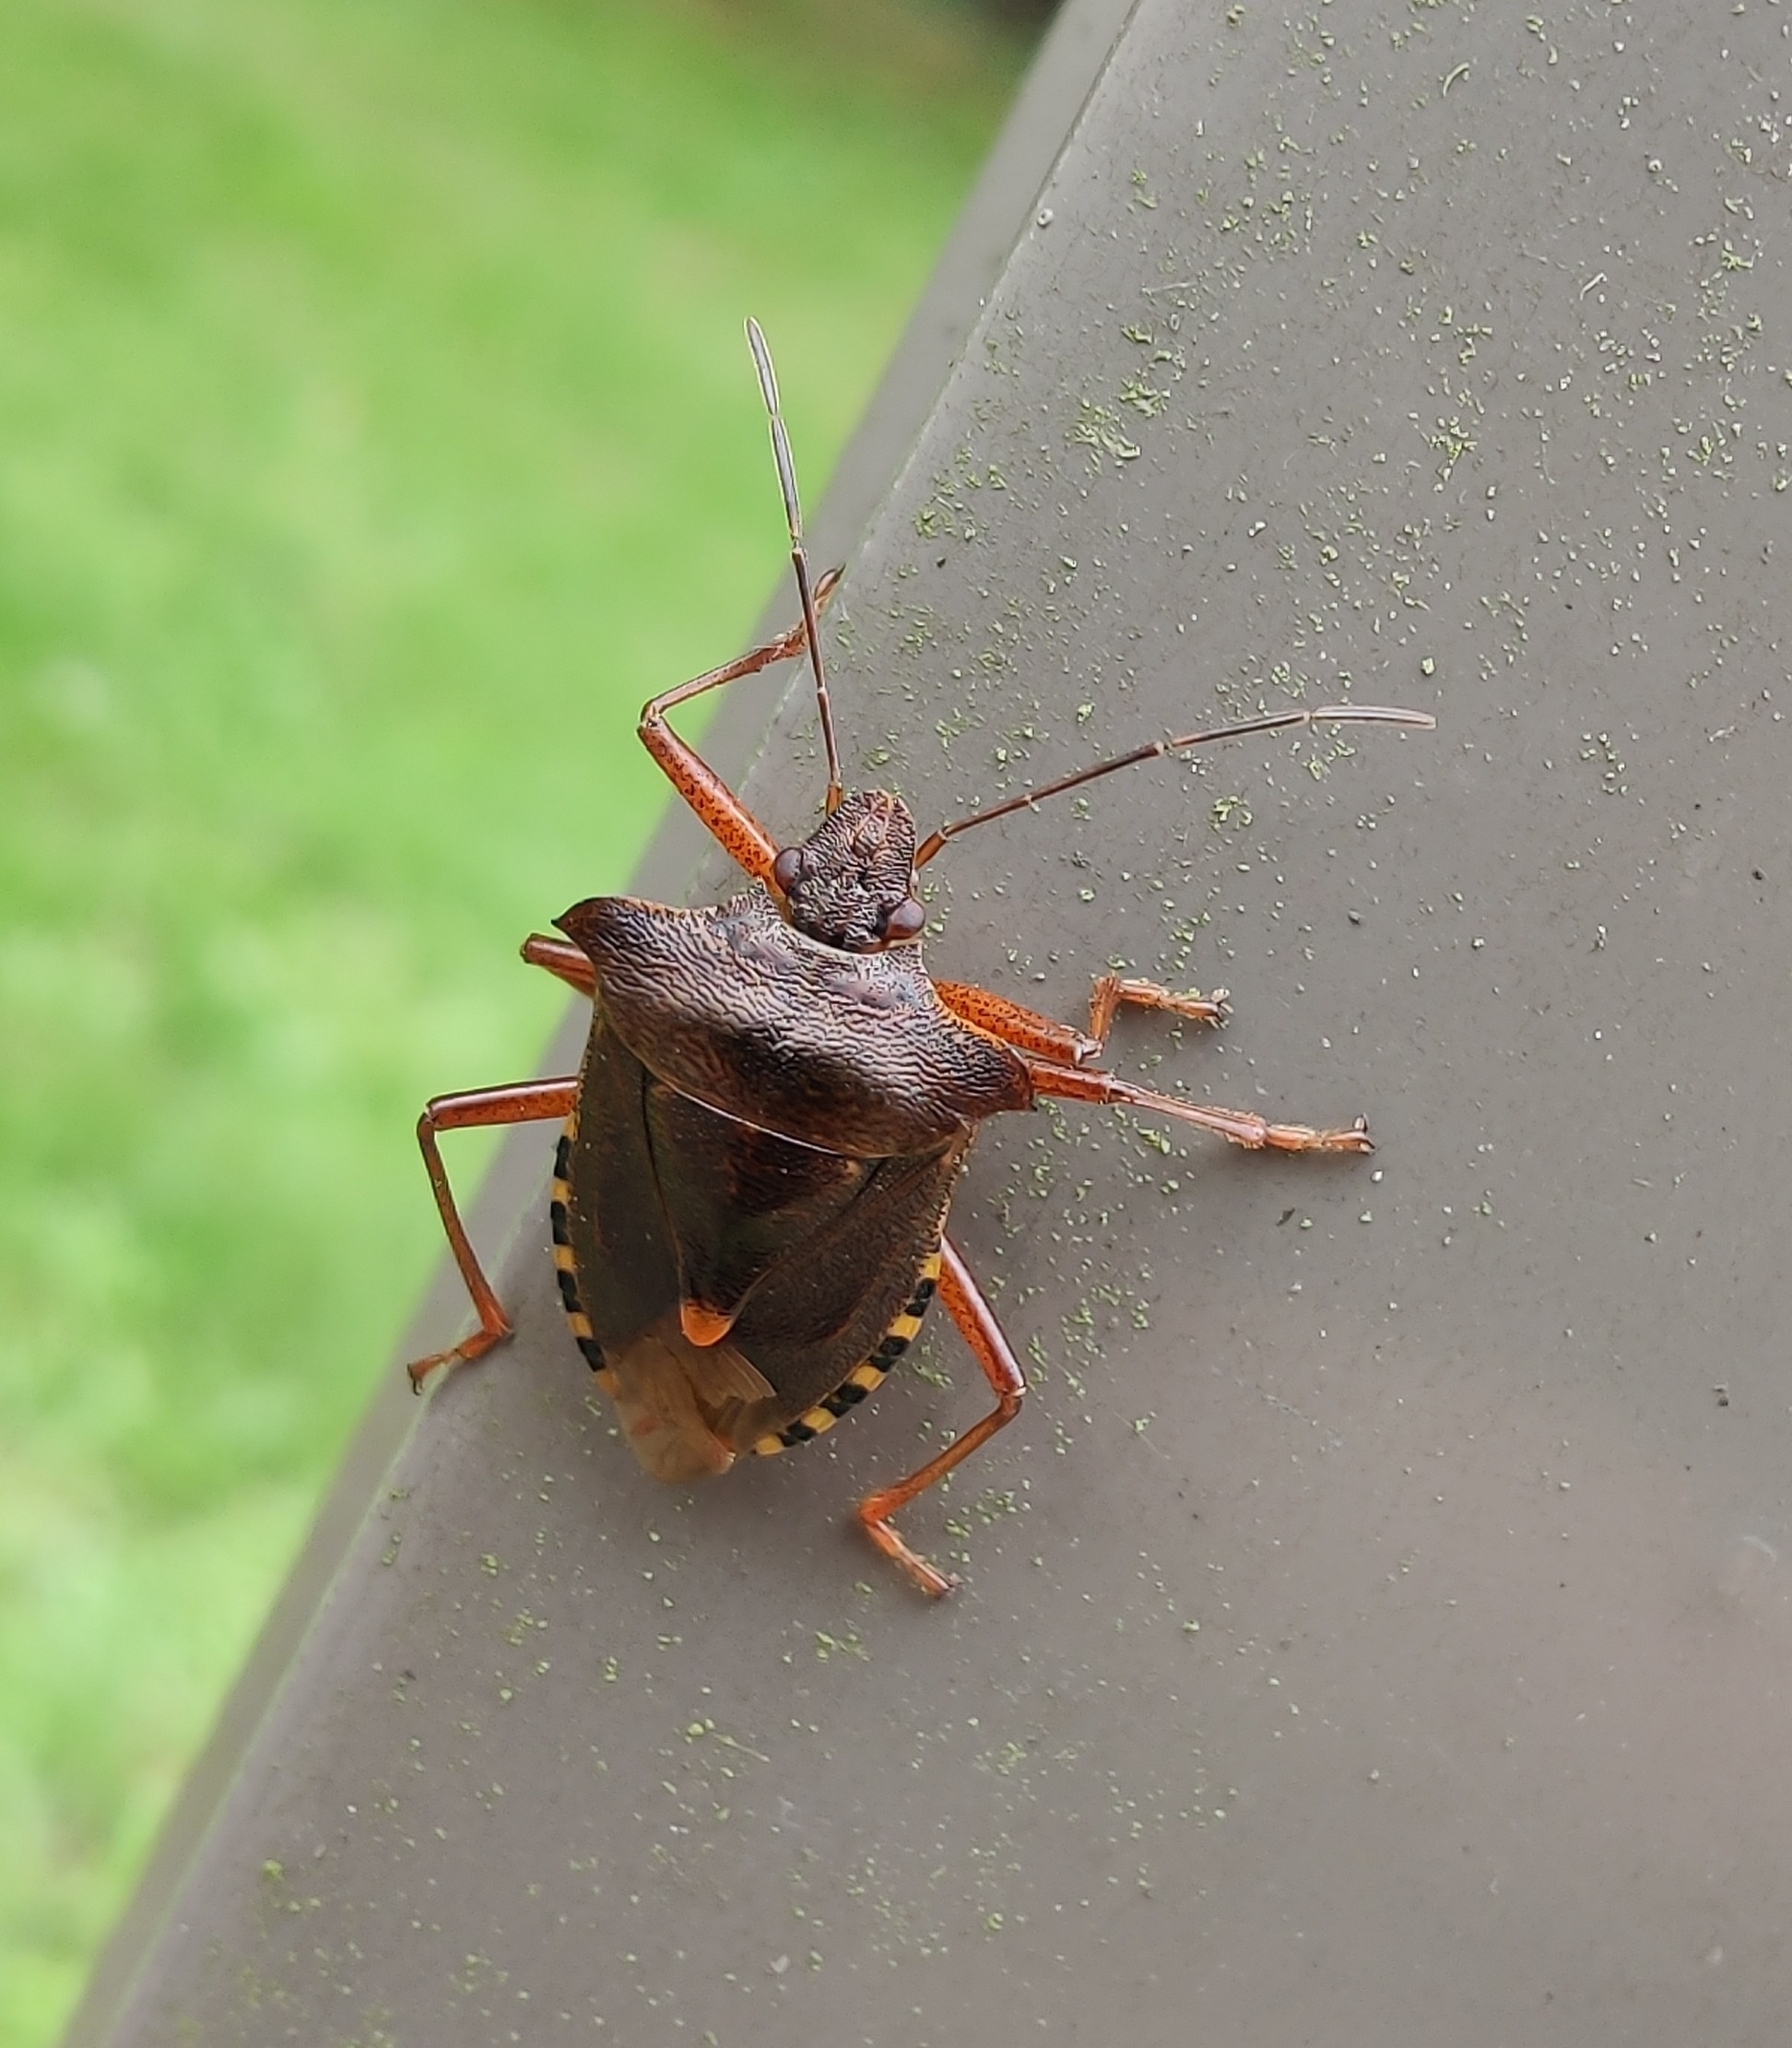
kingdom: Animalia
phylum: Arthropoda
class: Insecta
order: Hemiptera
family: Pentatomidae
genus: Pentatoma
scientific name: Pentatoma rufipes
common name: Forest bug
